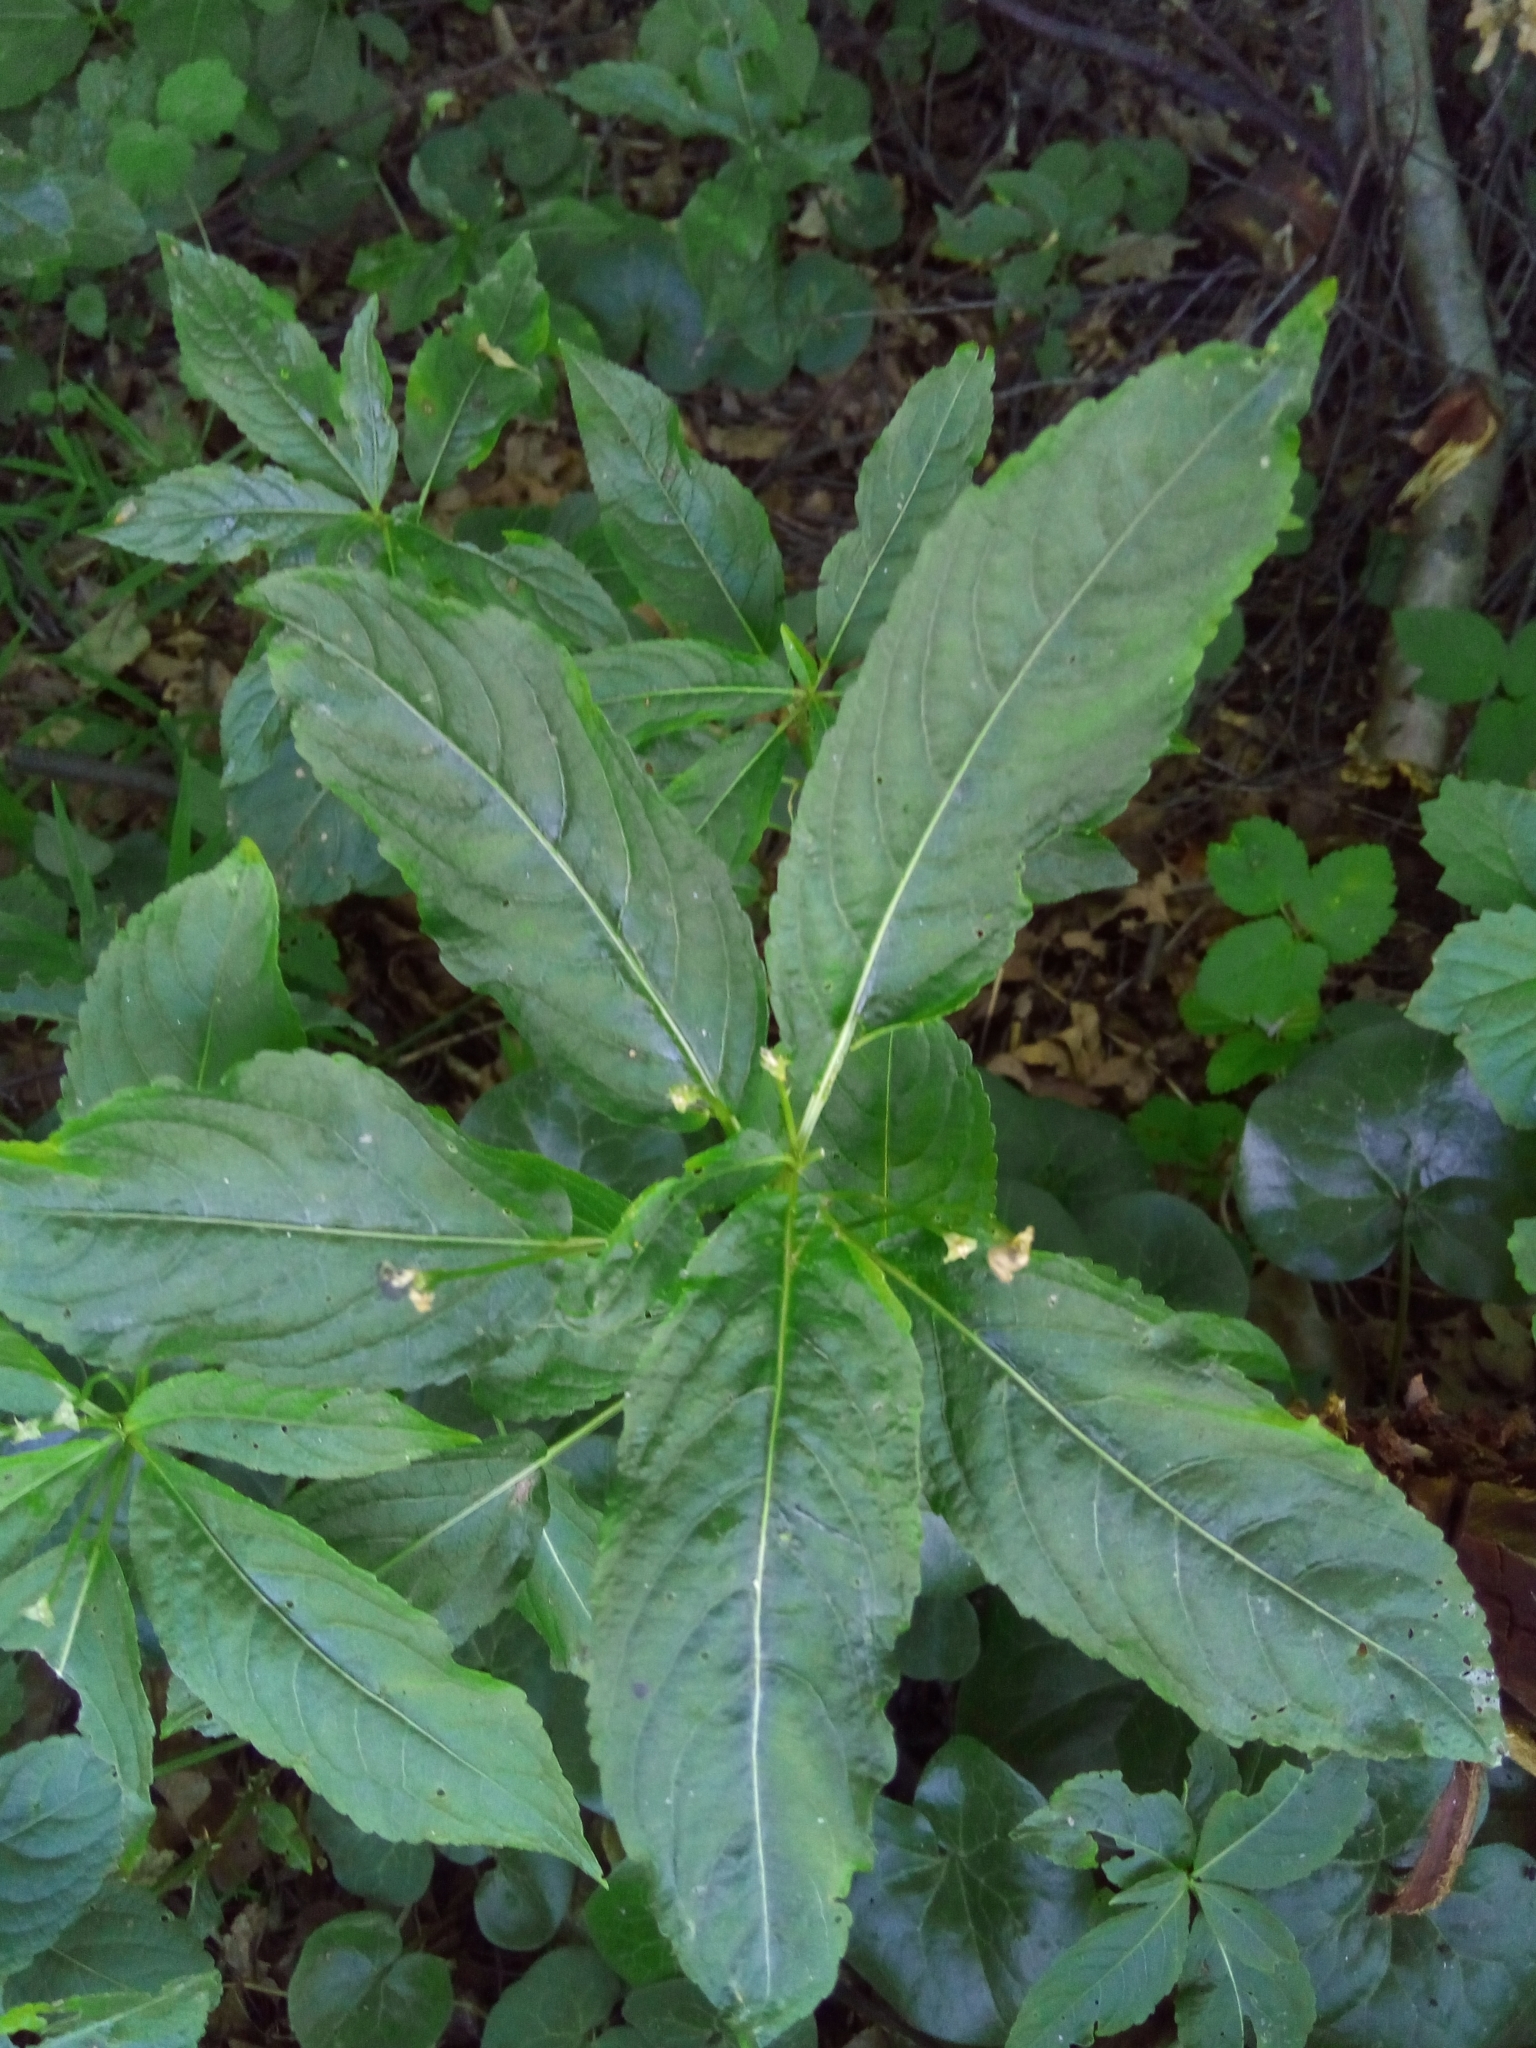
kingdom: Plantae
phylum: Tracheophyta
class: Magnoliopsida
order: Malpighiales
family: Euphorbiaceae
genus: Mercurialis
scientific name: Mercurialis perennis
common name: Dog mercury
